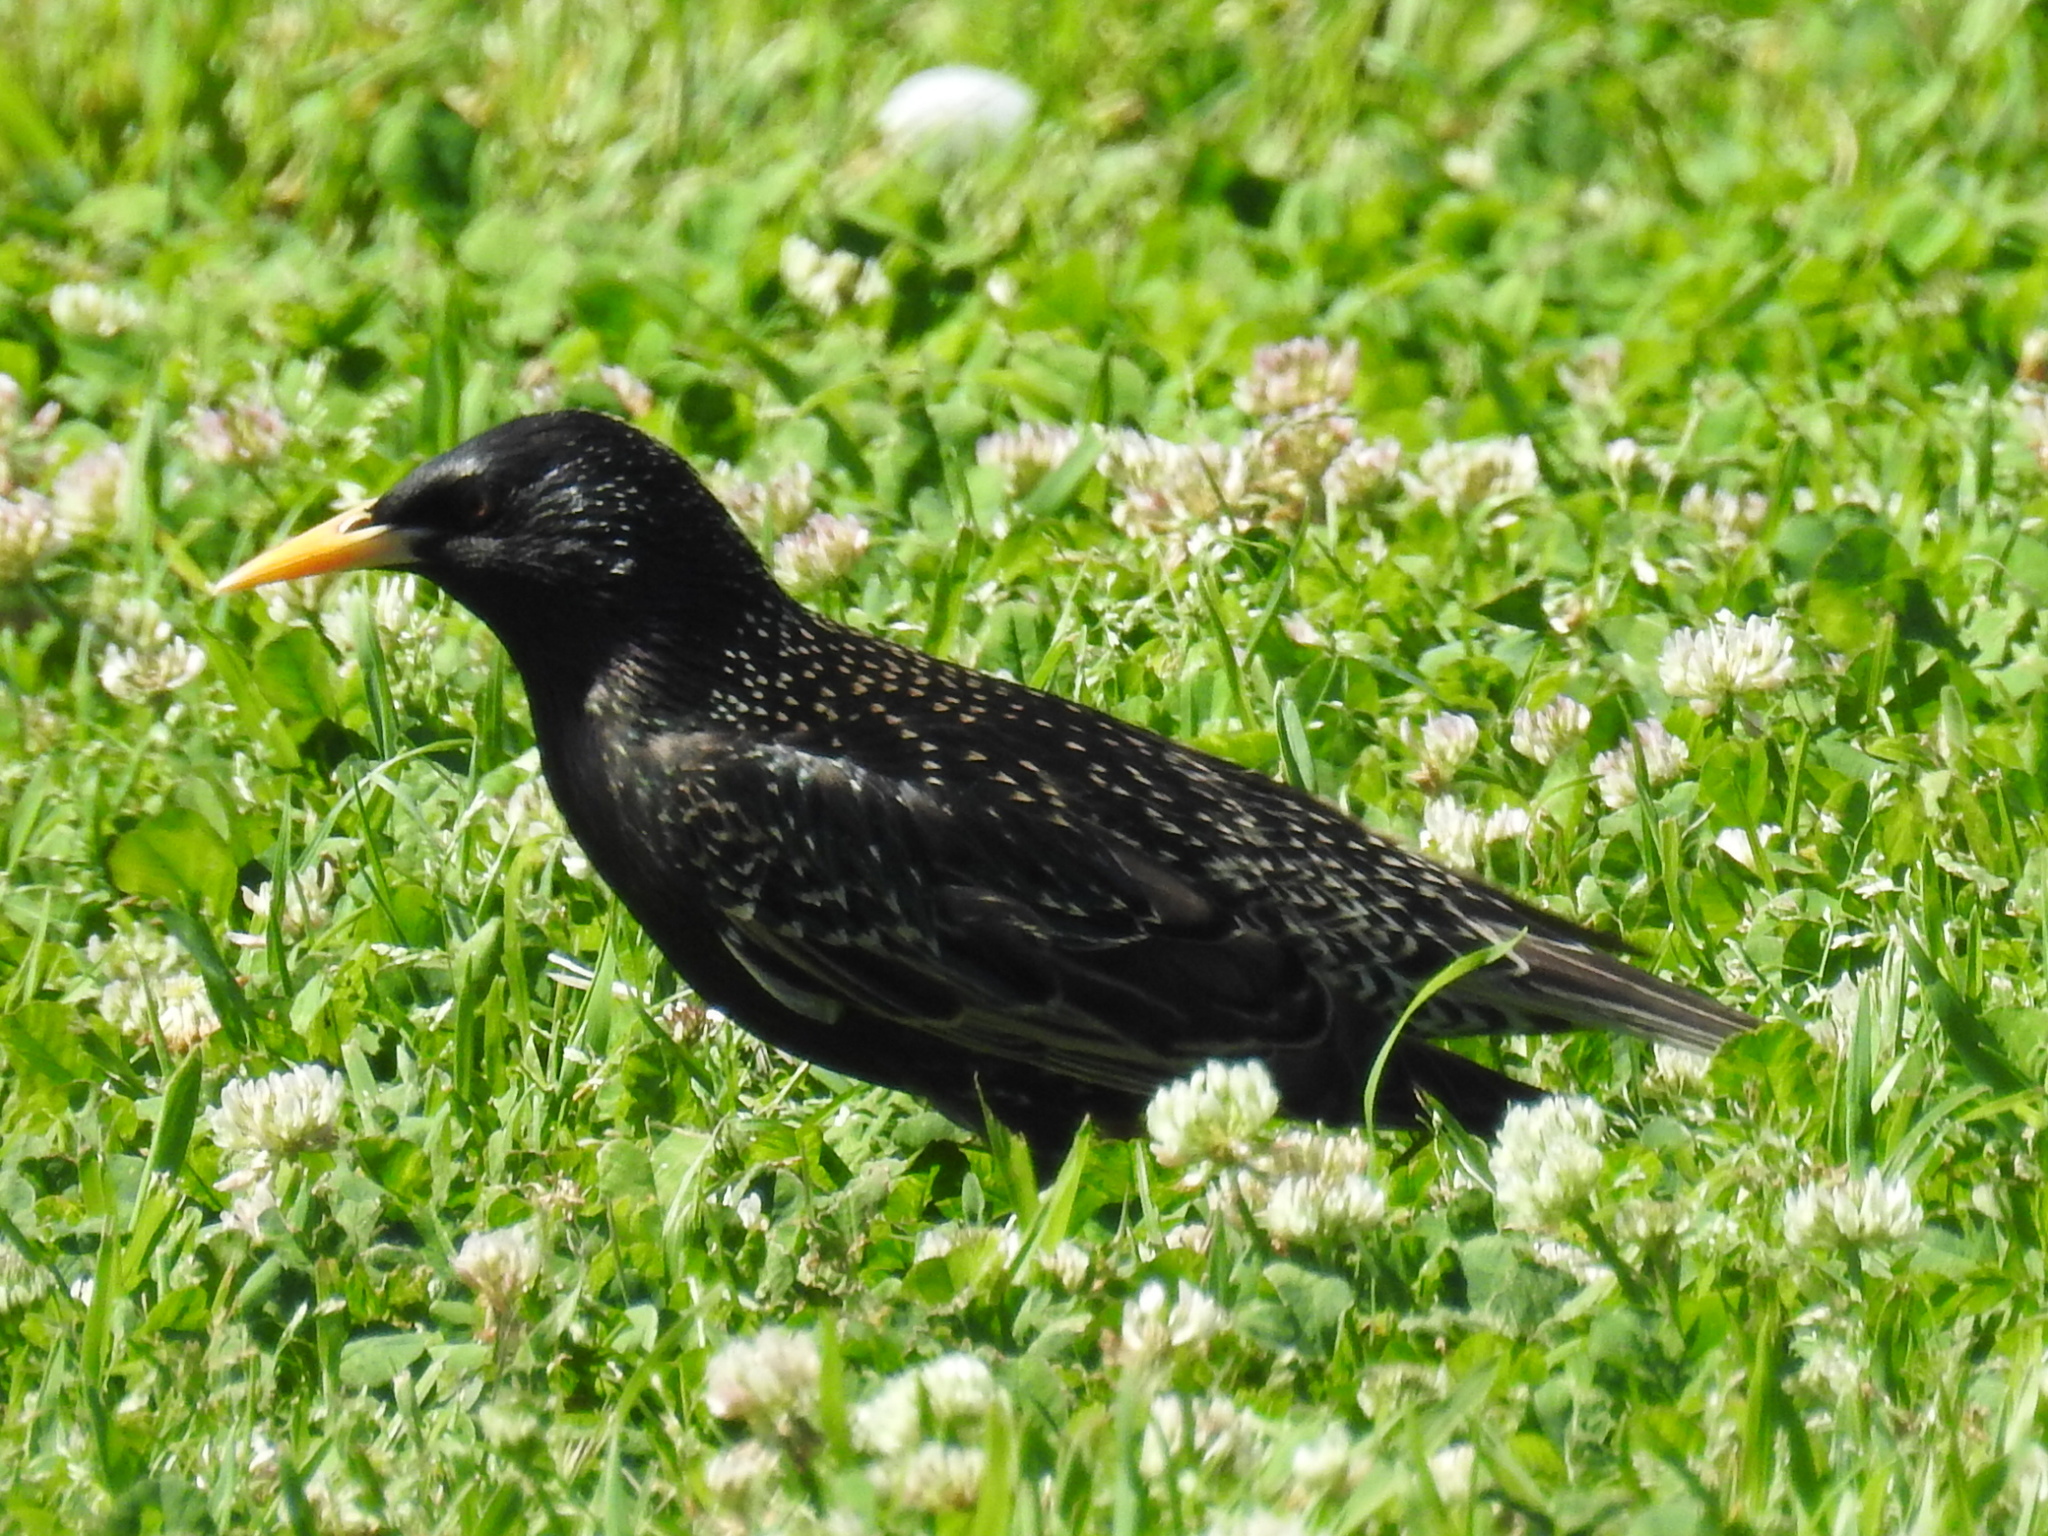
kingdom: Animalia
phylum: Chordata
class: Aves
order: Passeriformes
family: Sturnidae
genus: Sturnus
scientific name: Sturnus vulgaris
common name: Common starling
